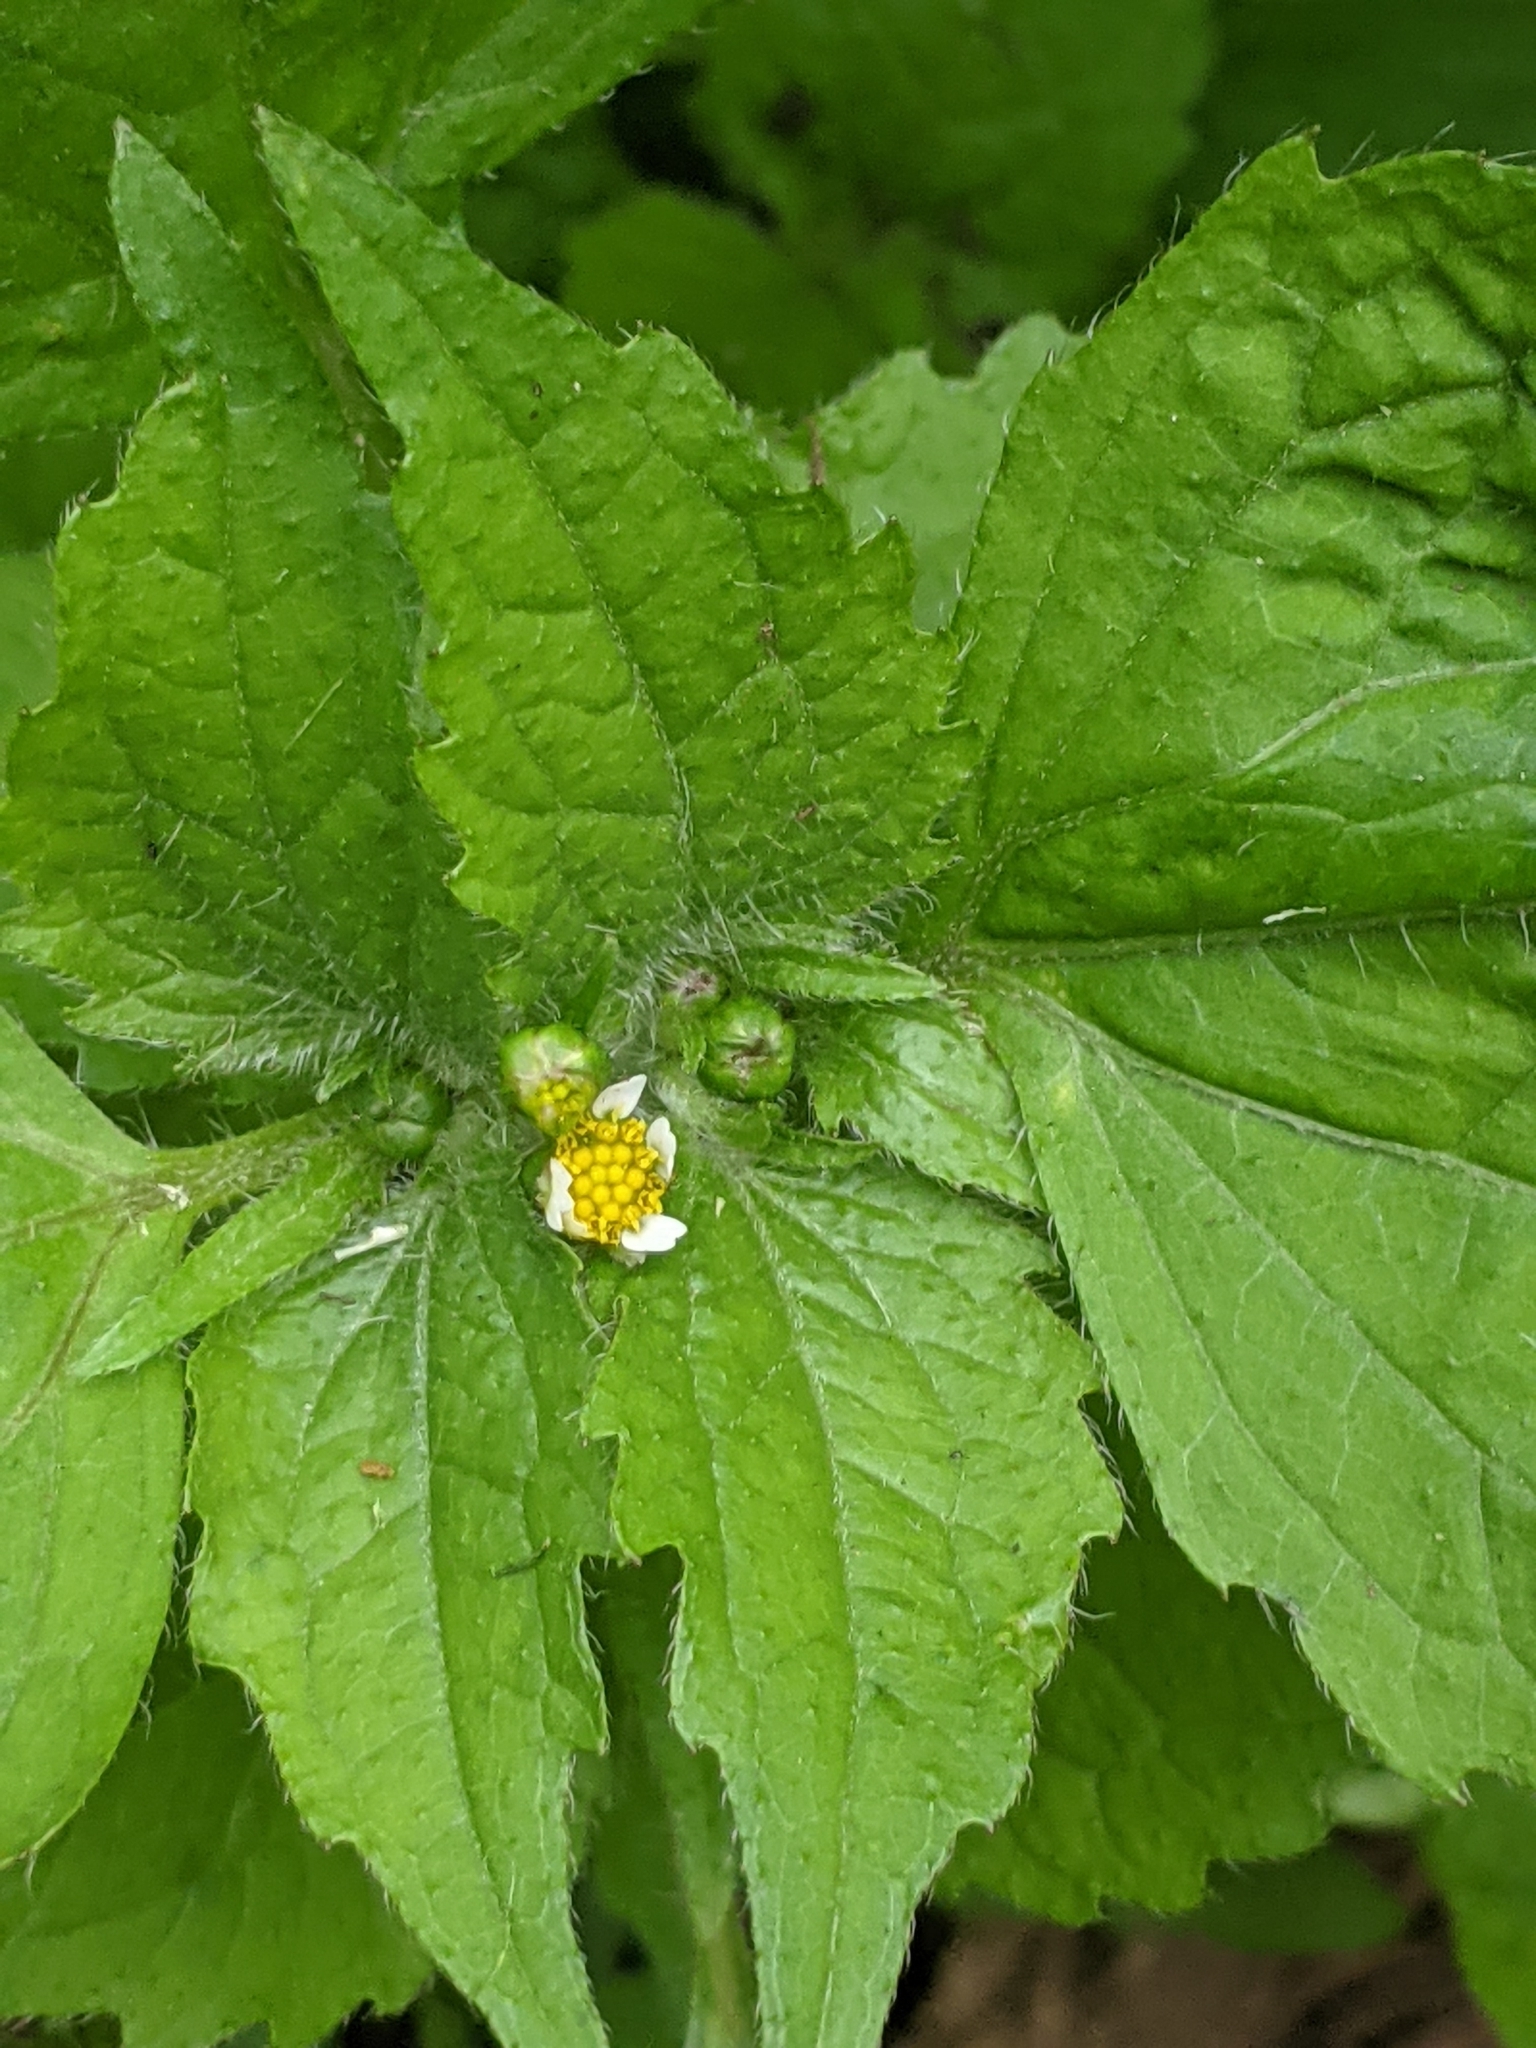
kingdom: Plantae
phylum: Tracheophyta
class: Magnoliopsida
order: Asterales
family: Asteraceae
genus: Galinsoga
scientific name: Galinsoga quadriradiata
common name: Shaggy soldier
